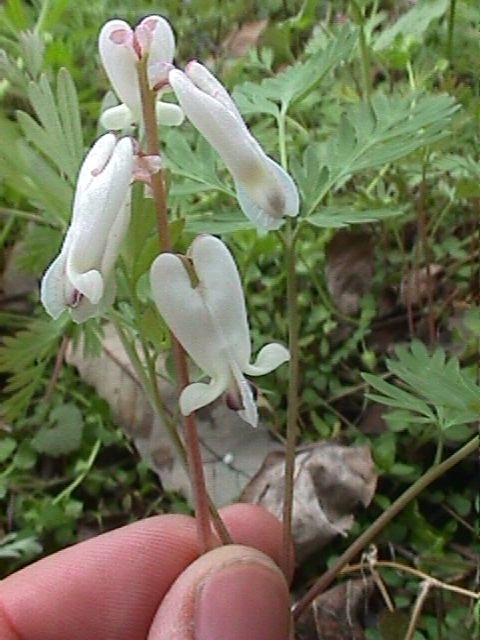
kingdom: Plantae
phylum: Tracheophyta
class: Magnoliopsida
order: Ranunculales
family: Papaveraceae
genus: Dicentra
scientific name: Dicentra canadensis
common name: Squirrel-corn
